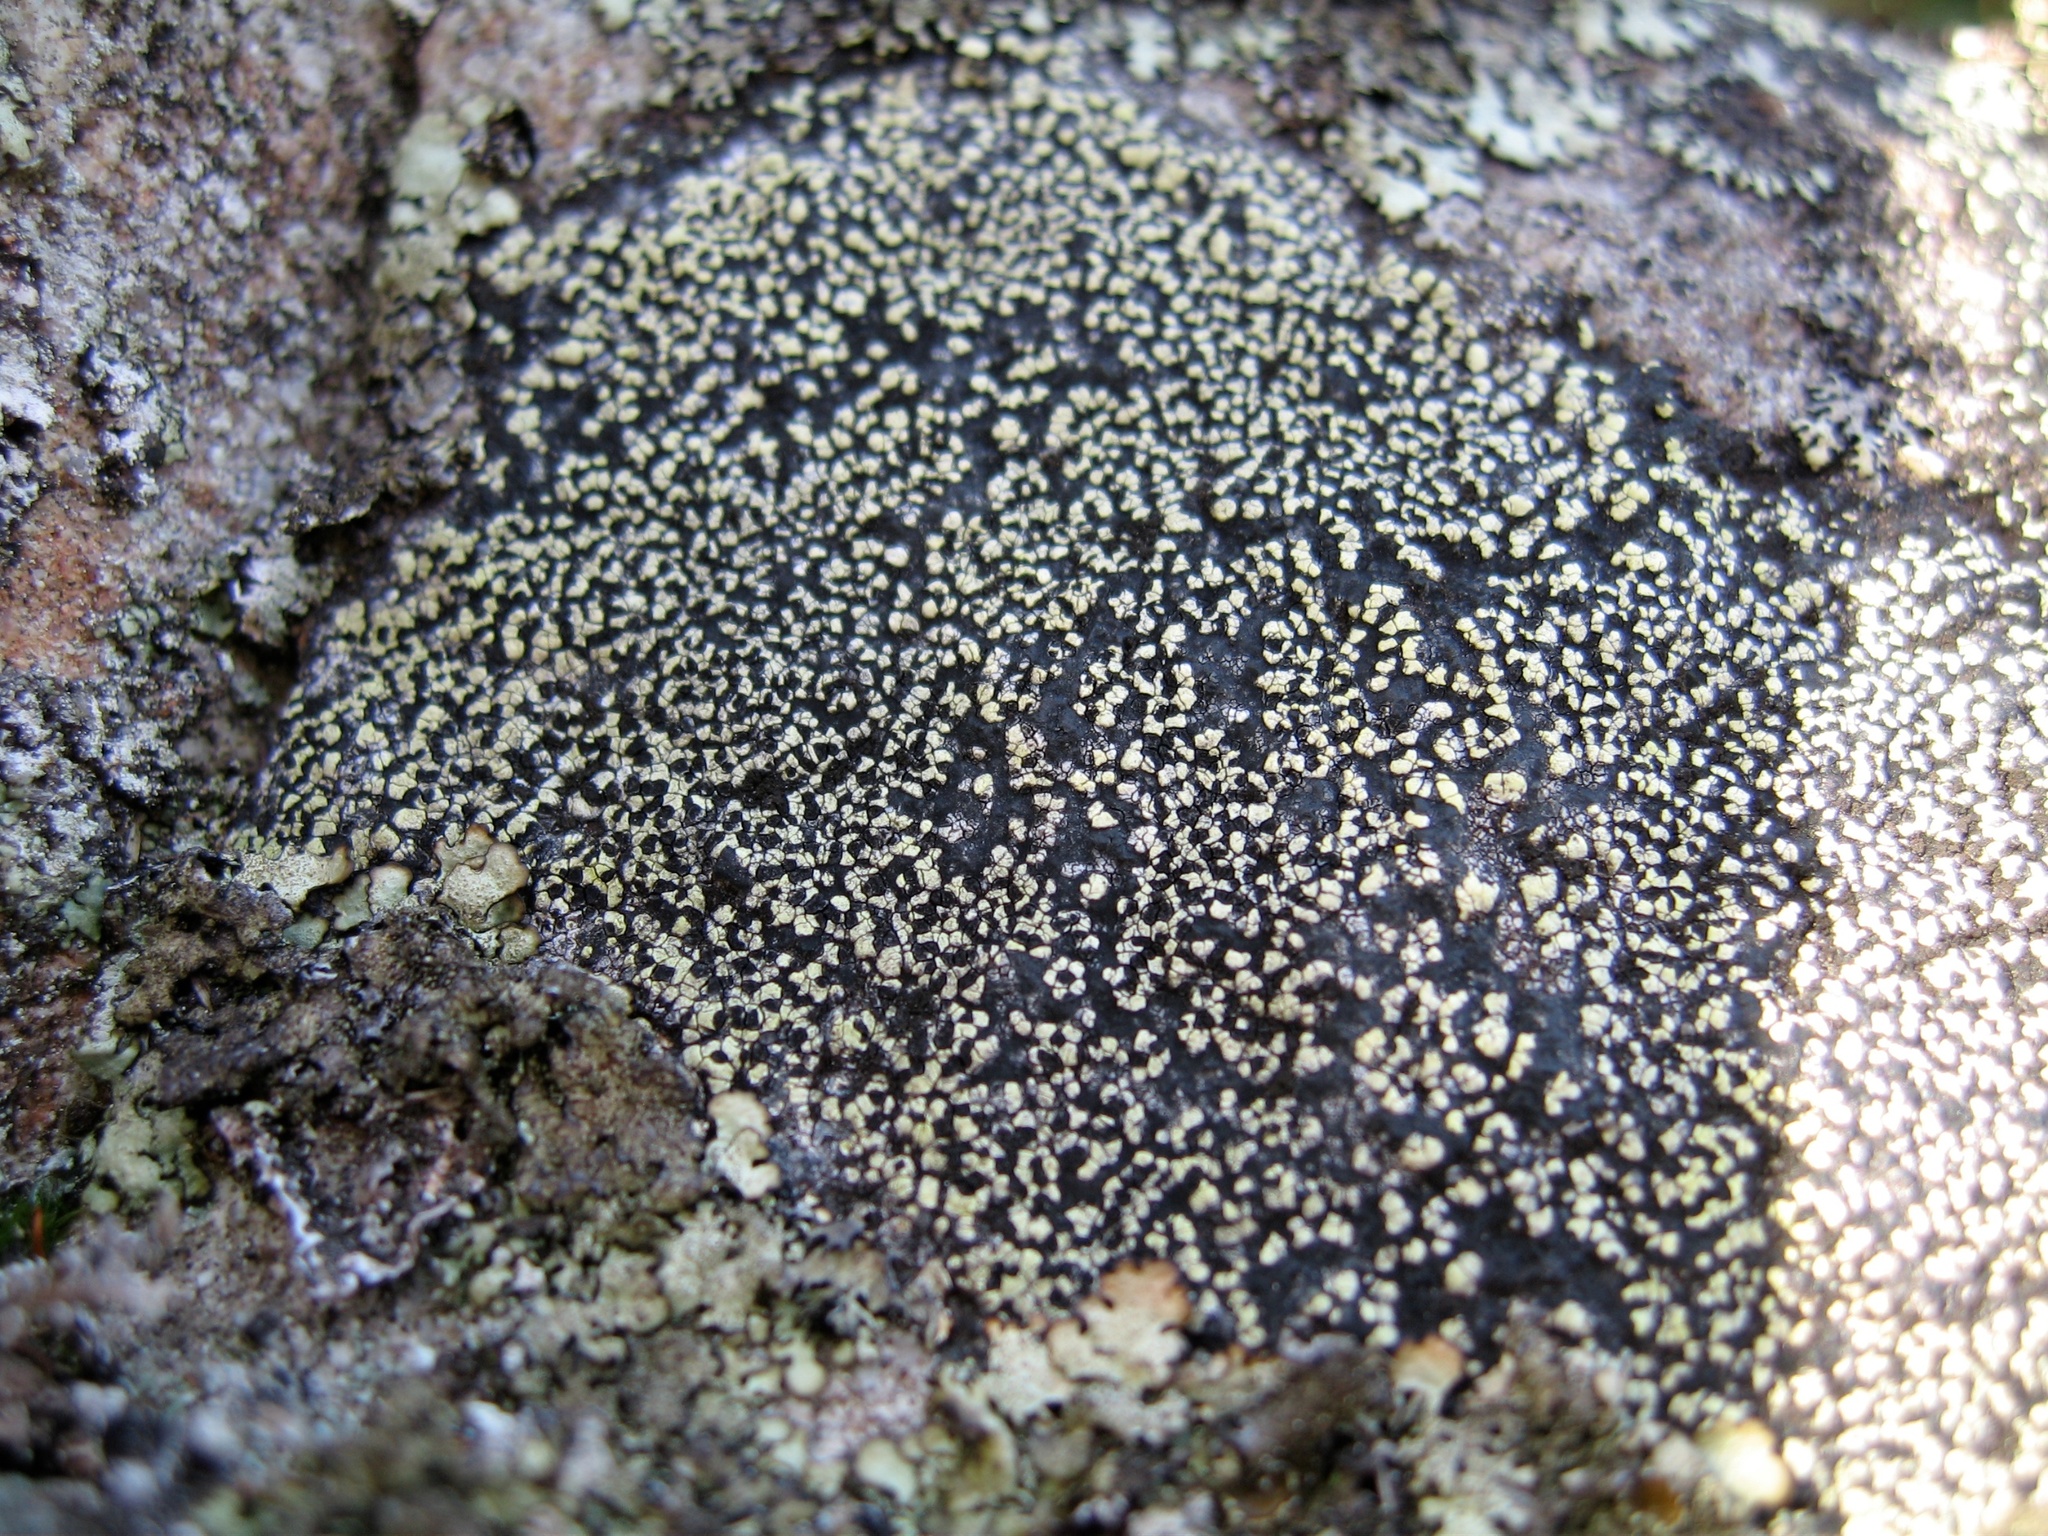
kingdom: Fungi
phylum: Ascomycota
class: Lecanoromycetes
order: Rhizocarpales
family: Rhizocarpaceae
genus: Rhizocarpon
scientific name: Rhizocarpon geographicum
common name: Yellow map lichen
